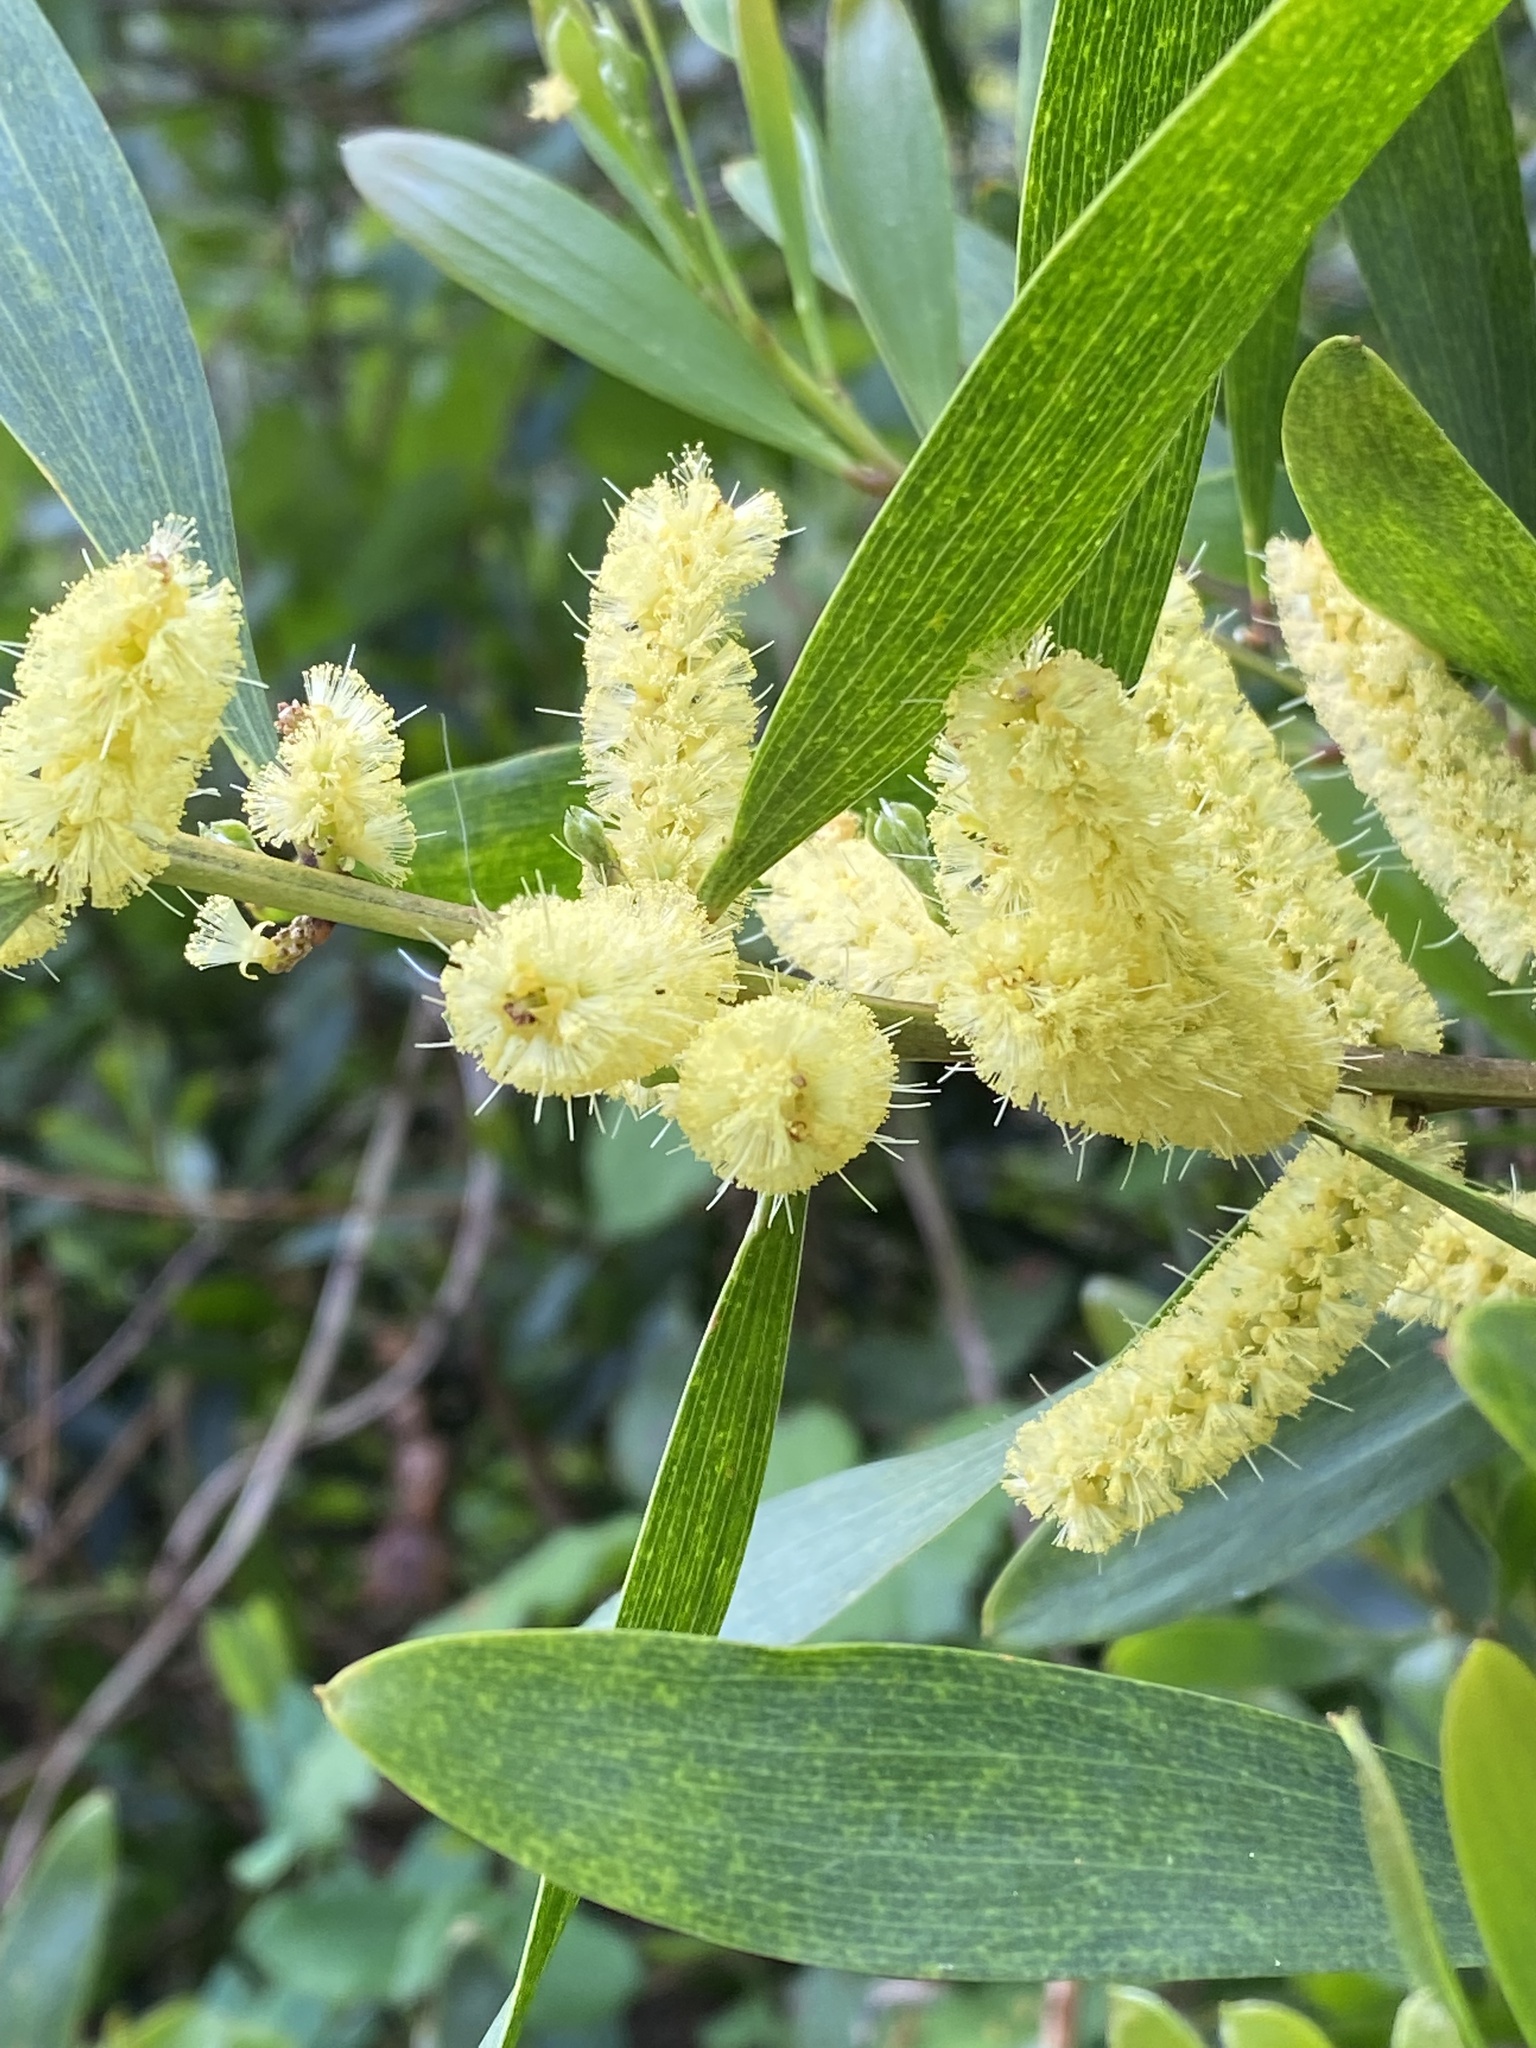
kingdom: Plantae
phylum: Tracheophyta
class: Magnoliopsida
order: Fabales
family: Fabaceae
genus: Acacia
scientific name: Acacia longifolia
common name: Sydney golden wattle
